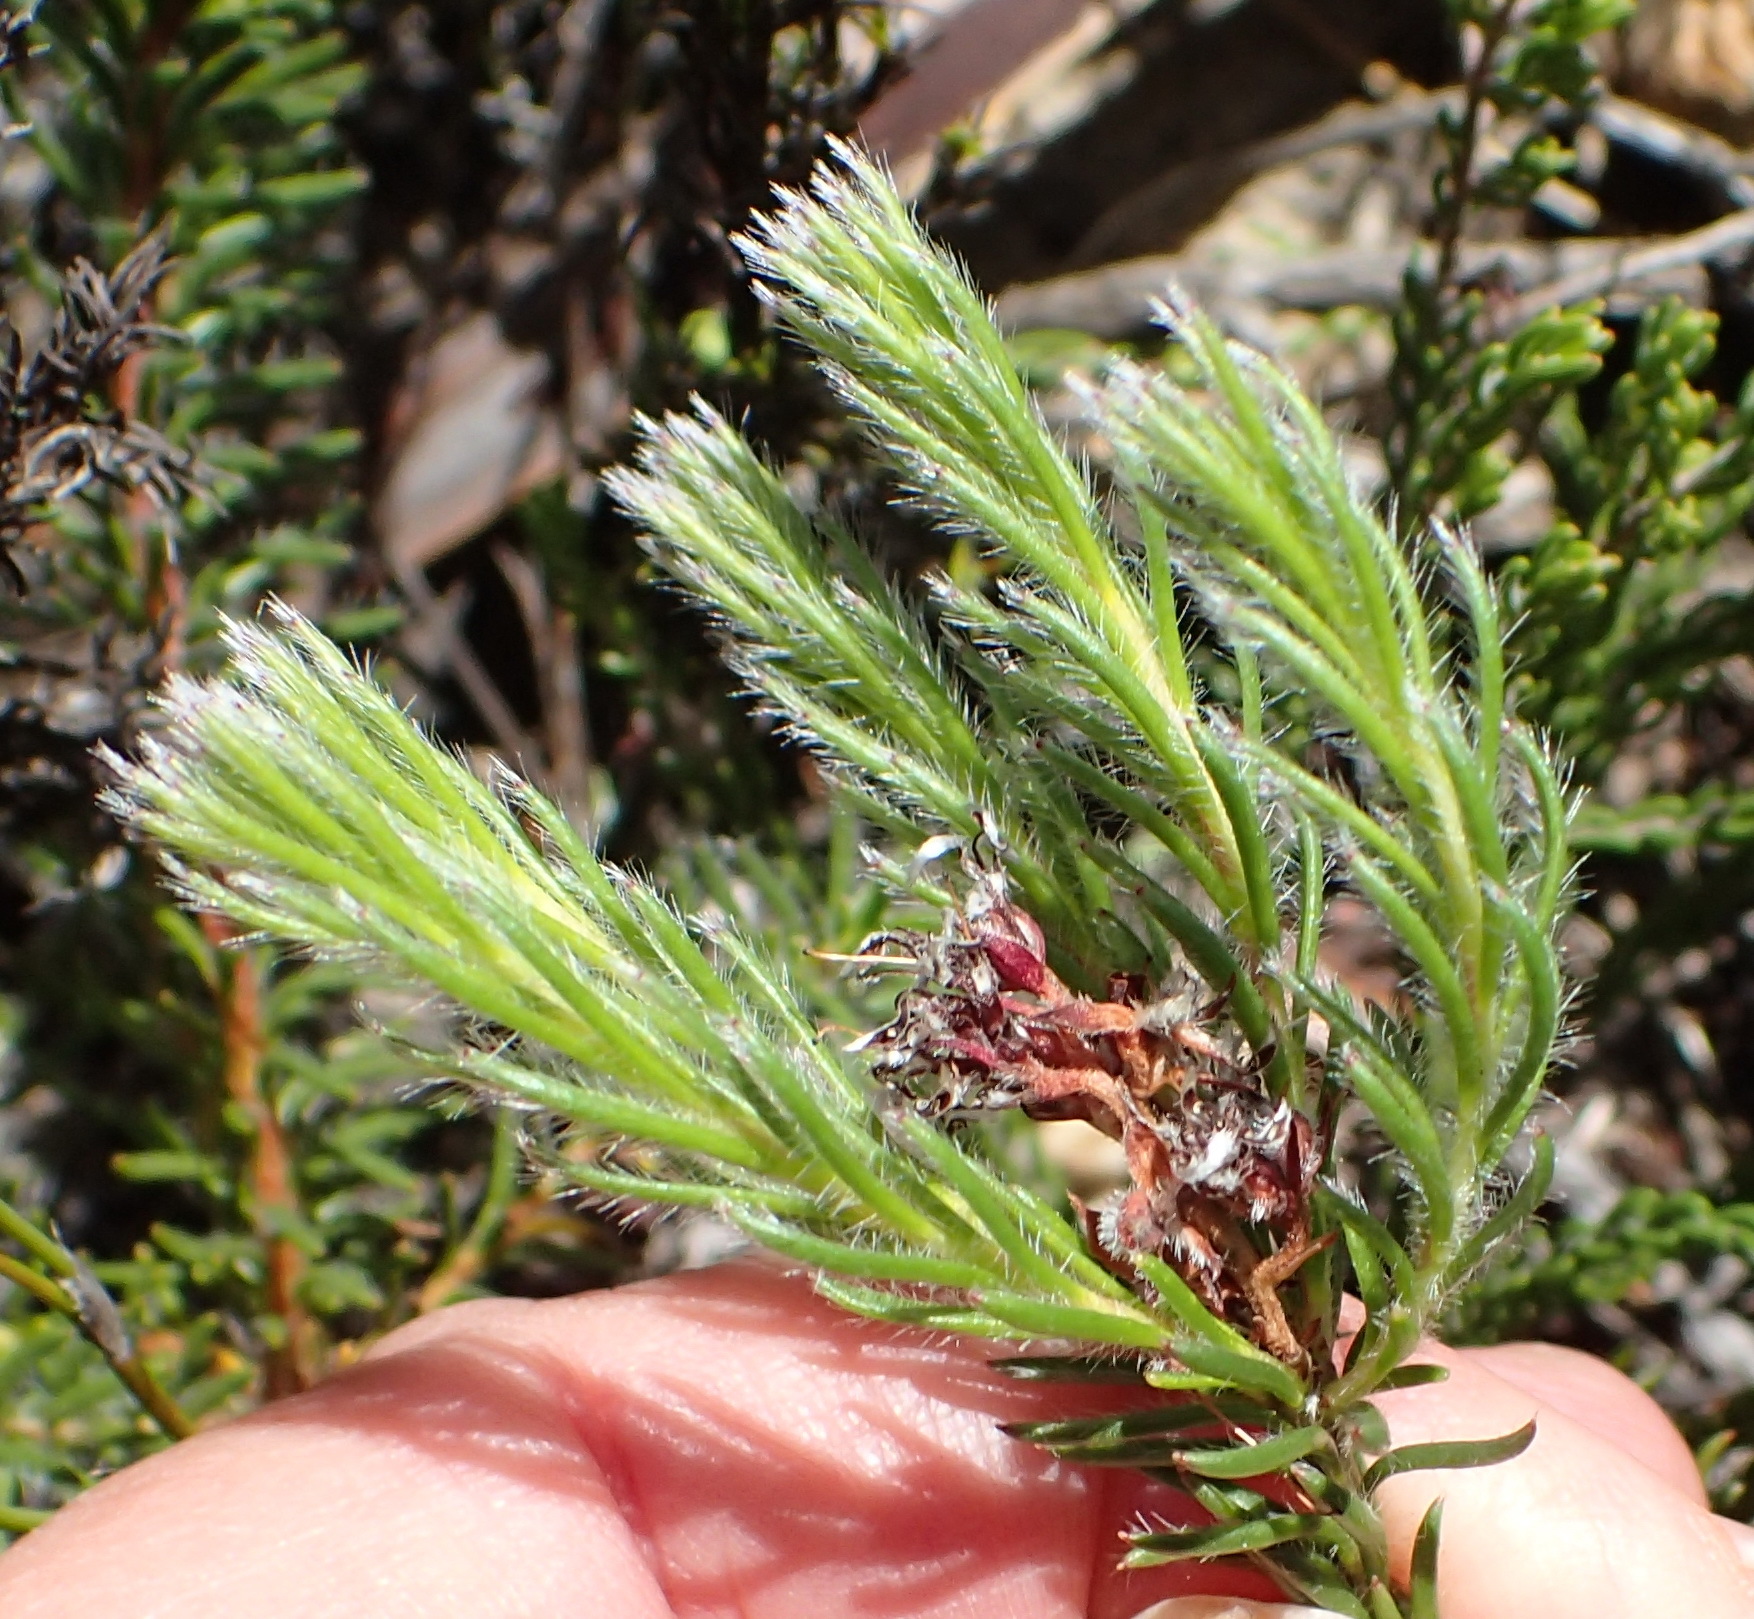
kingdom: Plantae
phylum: Tracheophyta
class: Magnoliopsida
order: Proteales
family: Proteaceae
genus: Spatalla
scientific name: Spatalla confusa
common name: Long-tube spoon
